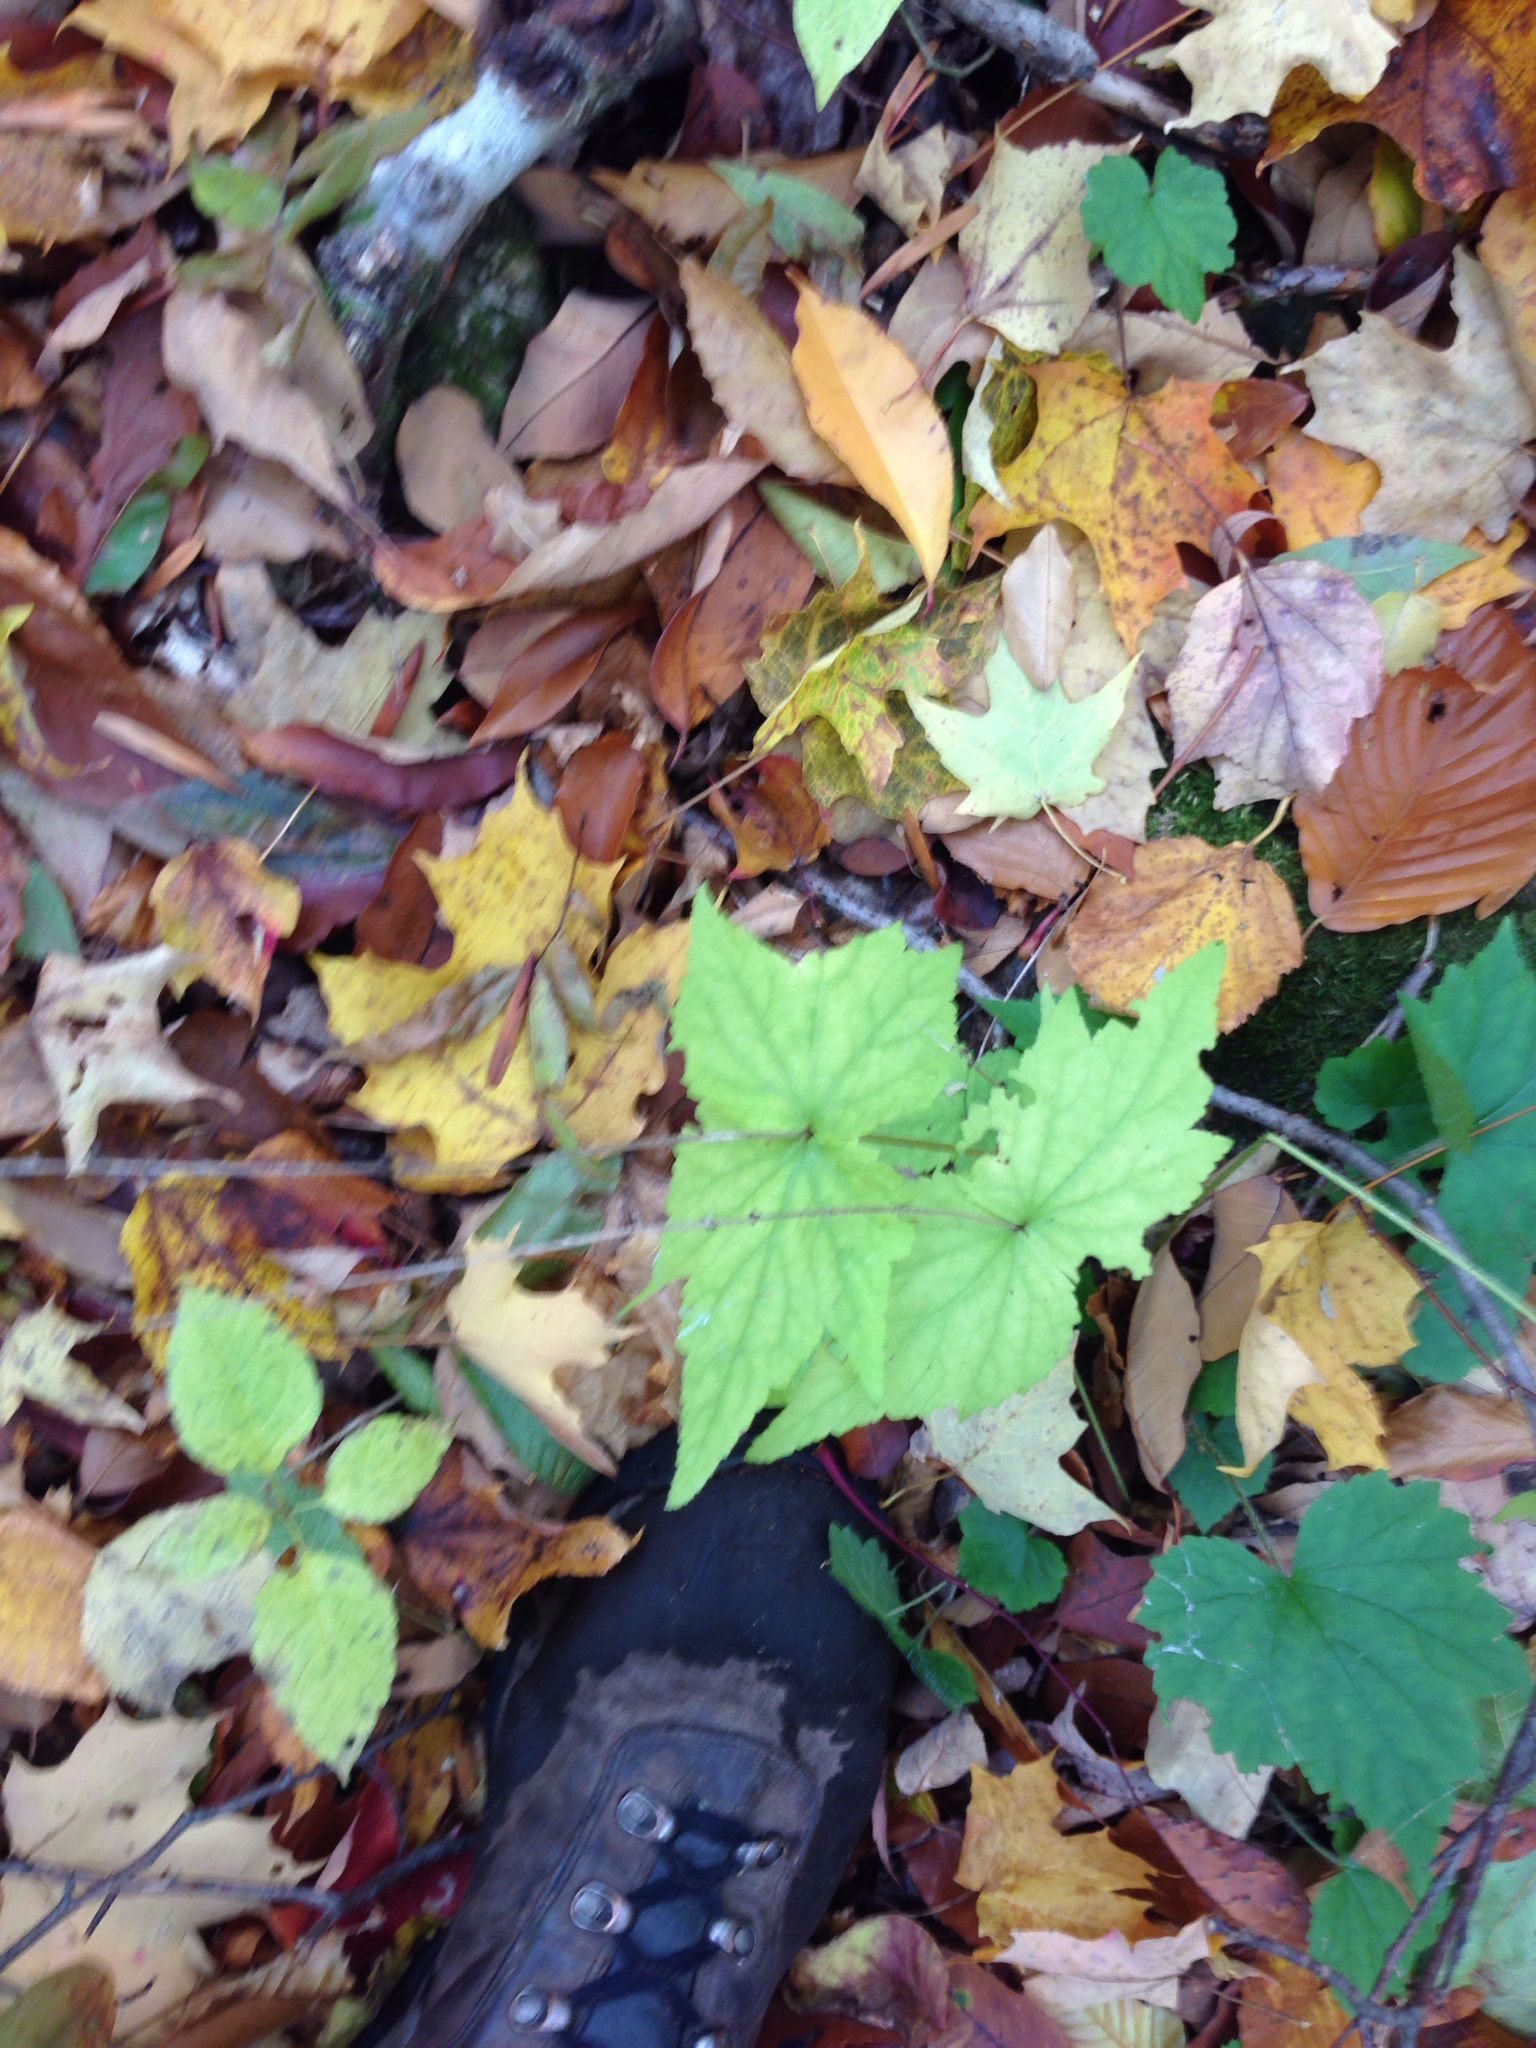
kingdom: Plantae
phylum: Tracheophyta
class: Magnoliopsida
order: Saxifragales
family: Saxifragaceae
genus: Mitella
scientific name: Mitella diphylla
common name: Coolwort
